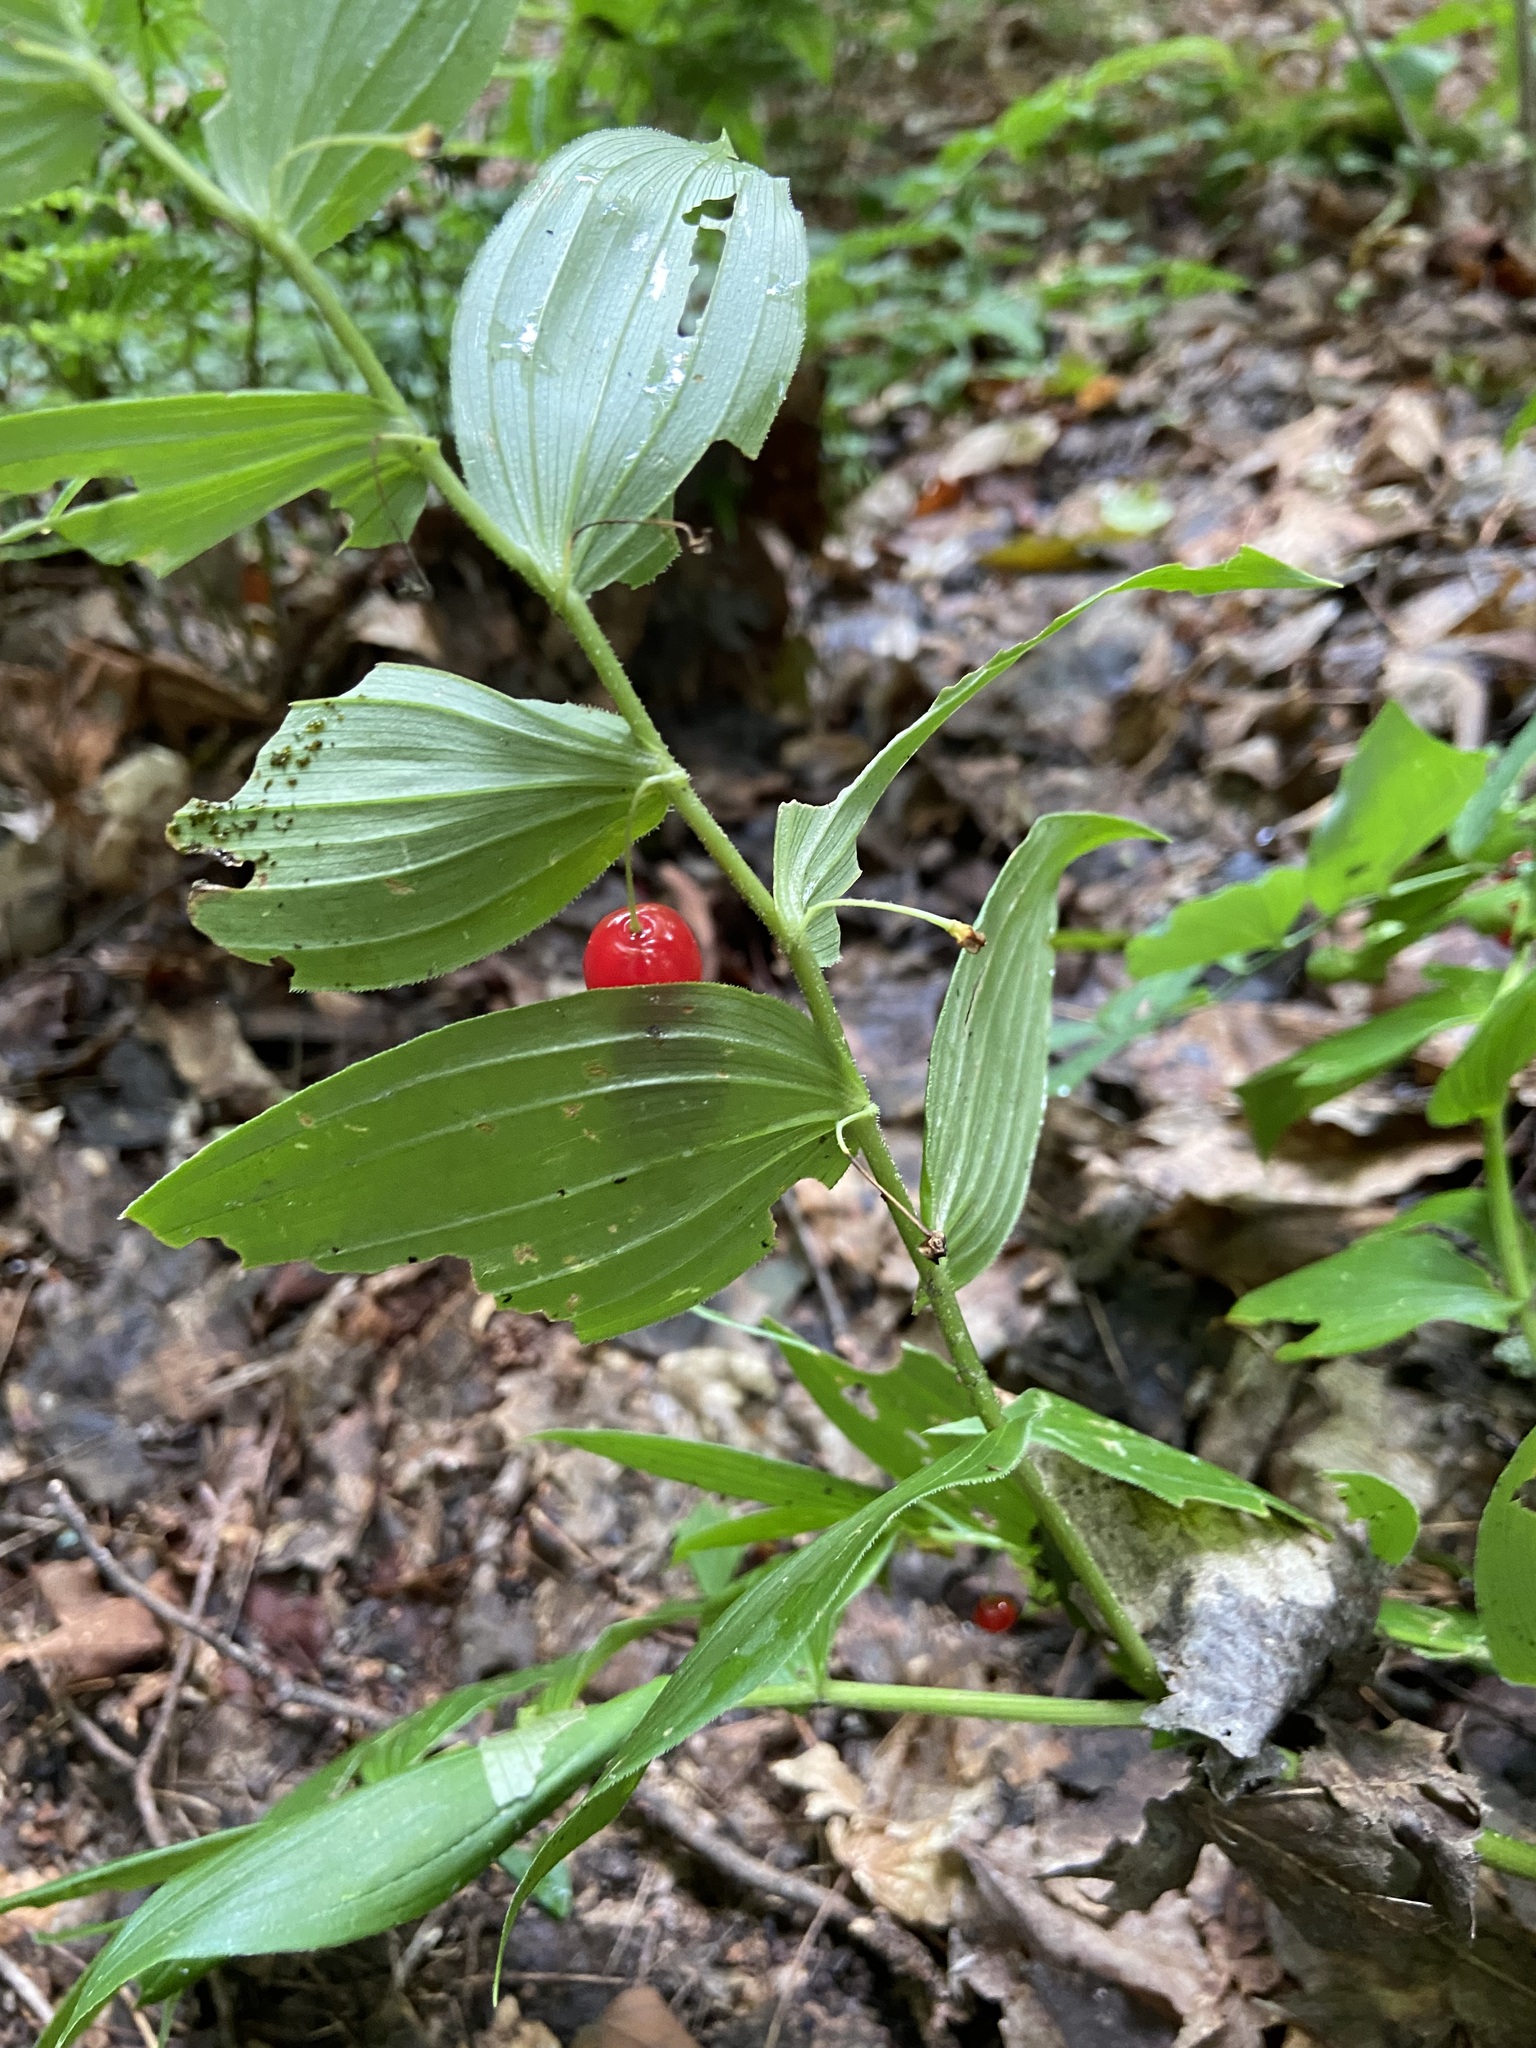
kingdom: Plantae
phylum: Tracheophyta
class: Liliopsida
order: Liliales
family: Liliaceae
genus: Streptopus
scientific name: Streptopus lanceolatus
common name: Rose mandarin
